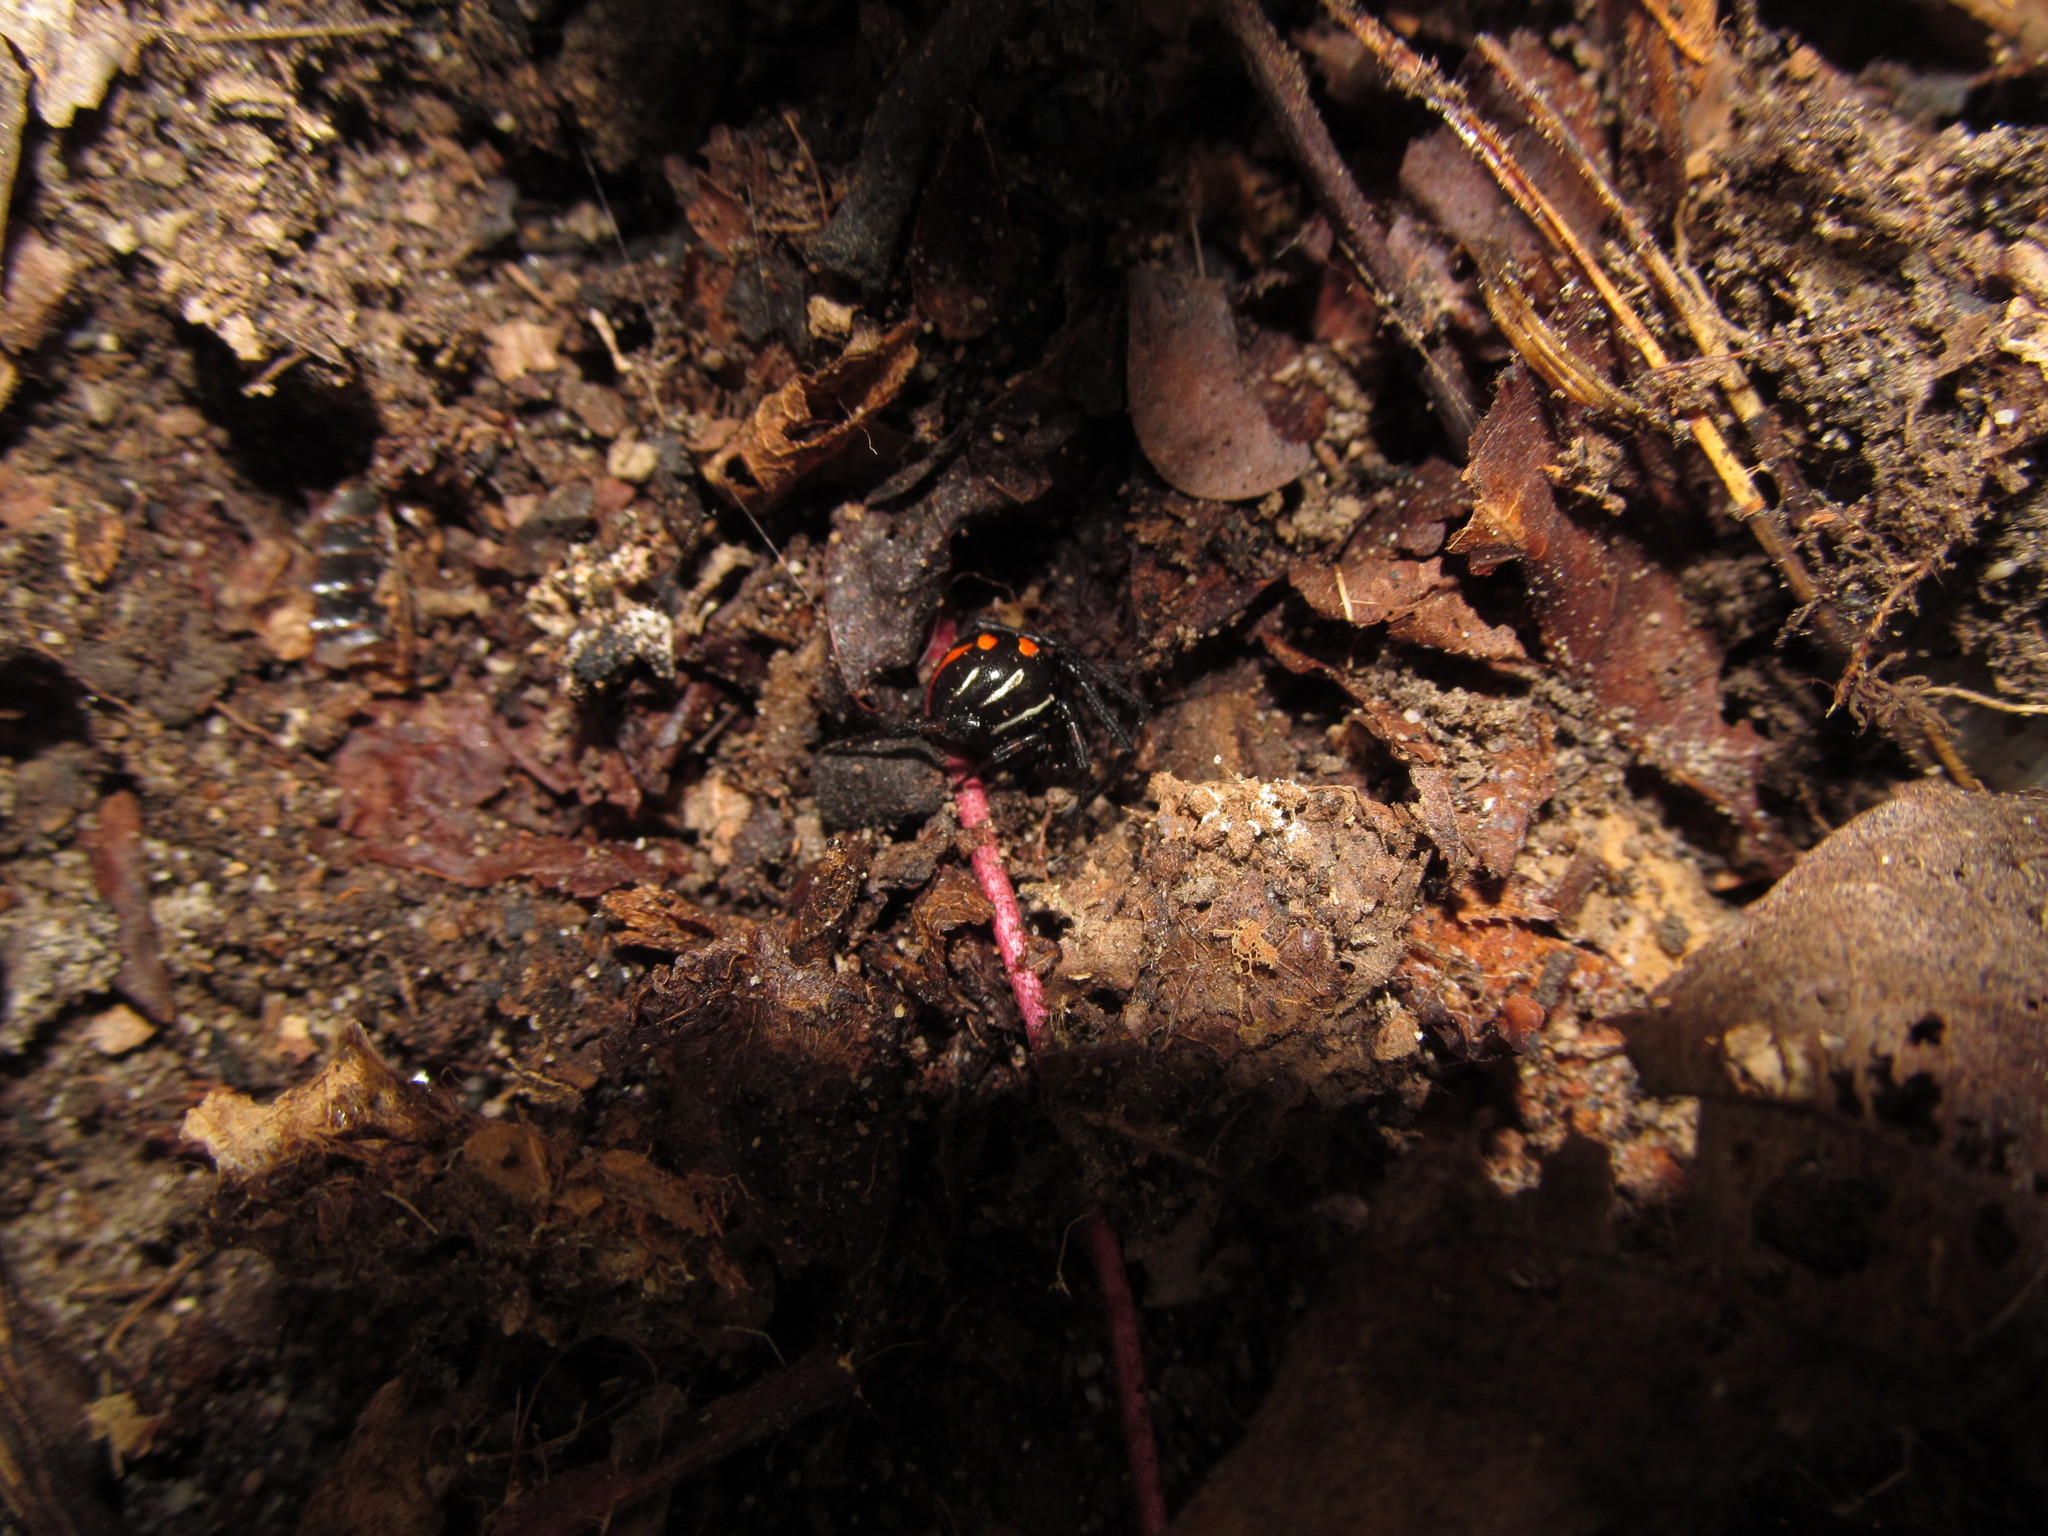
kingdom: Animalia
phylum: Arthropoda
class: Arachnida
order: Araneae
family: Theridiidae
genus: Latrodectus
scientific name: Latrodectus variolus
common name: Northern black widow
